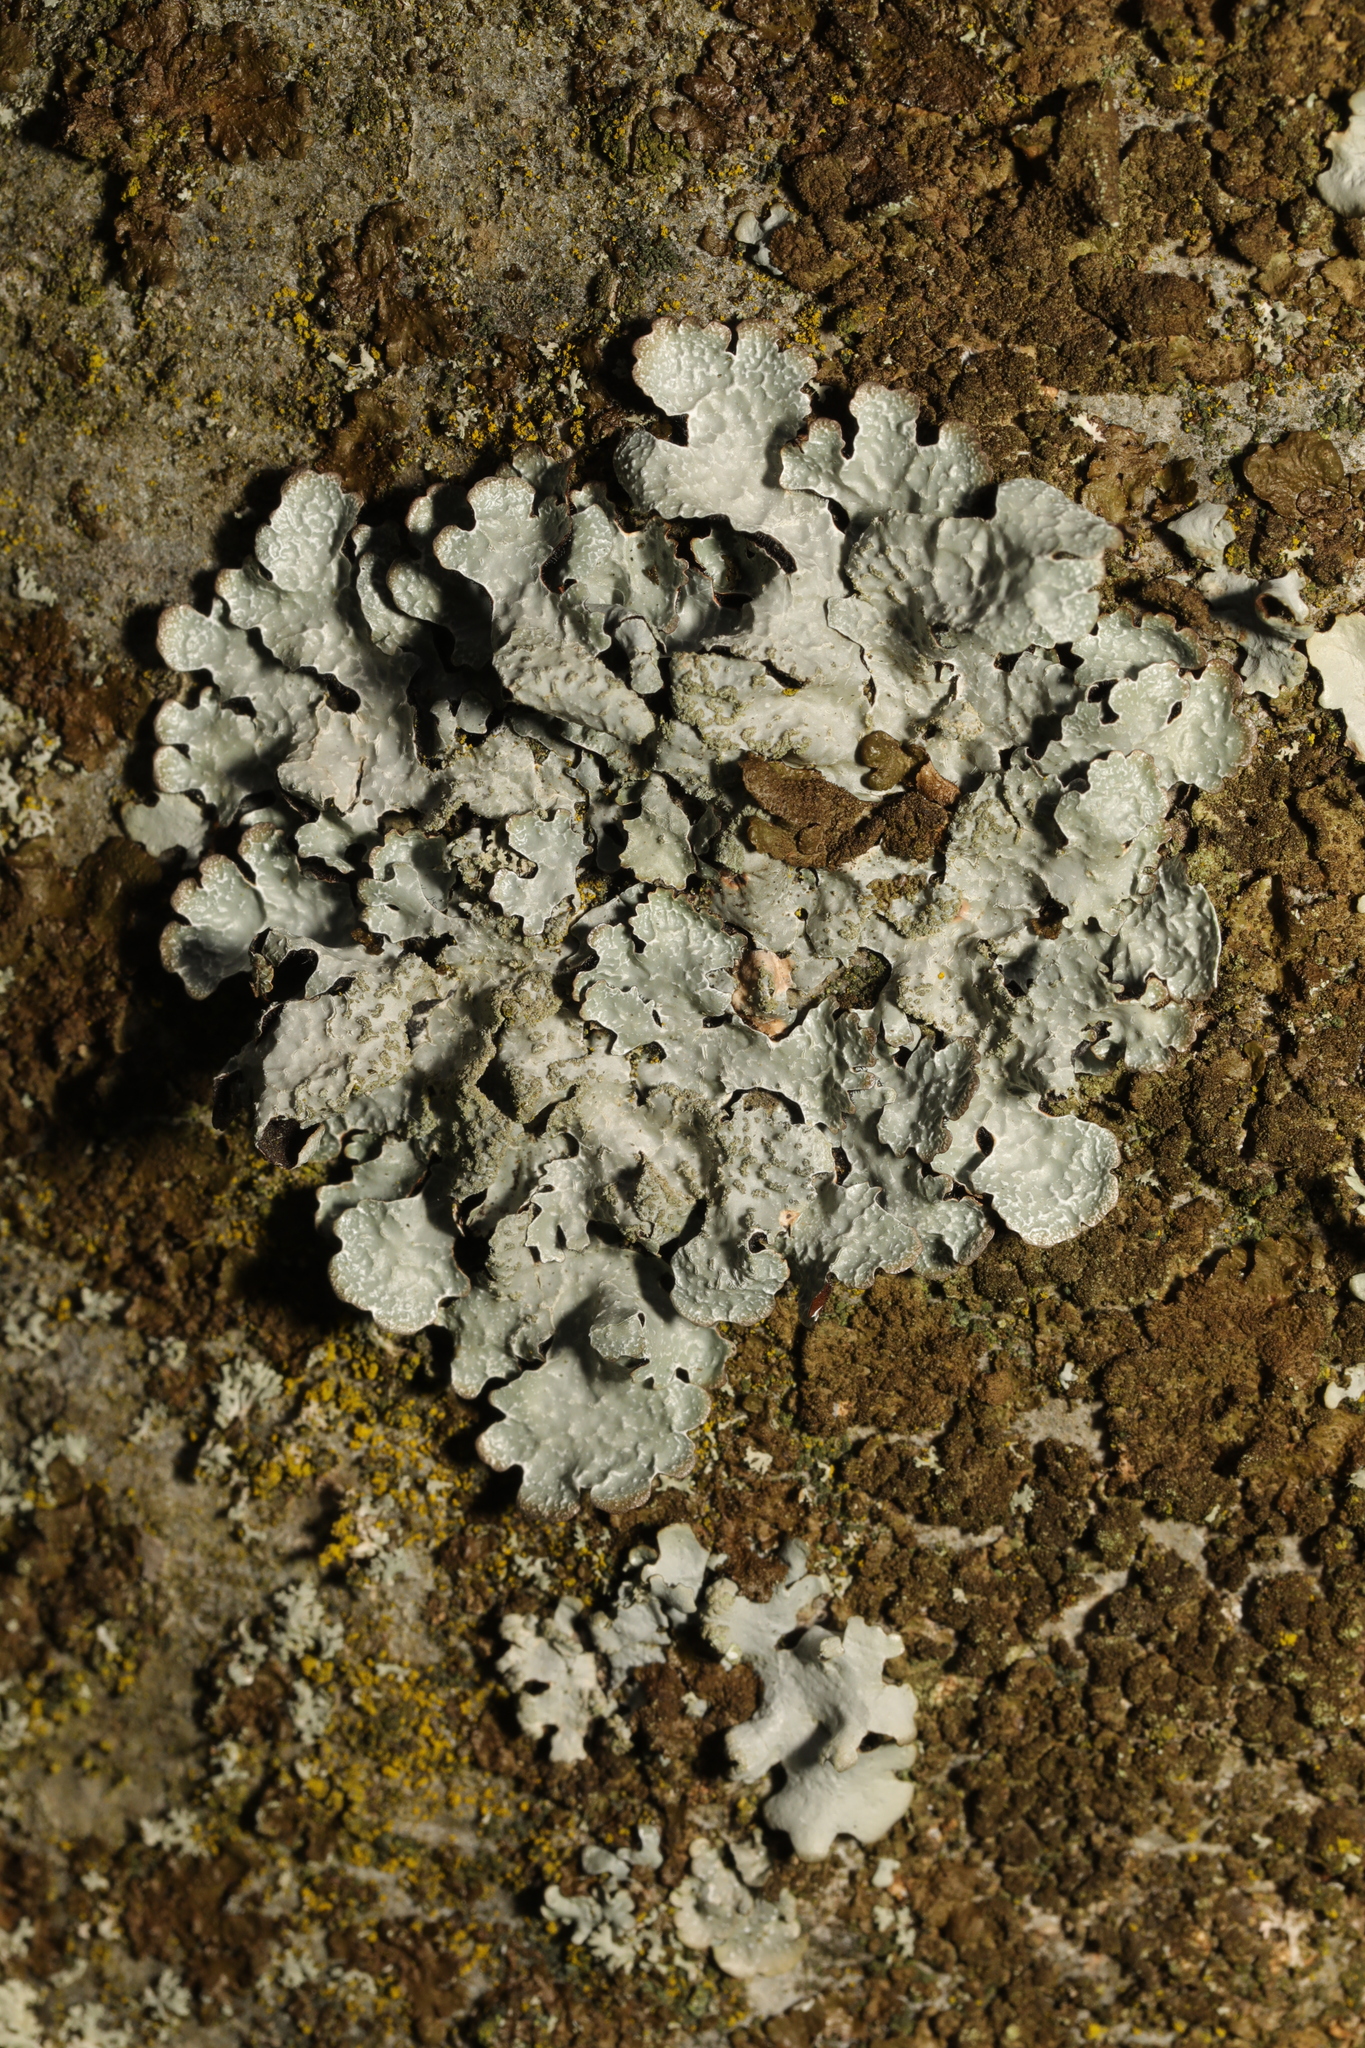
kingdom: Fungi
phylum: Ascomycota
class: Lecanoromycetes
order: Lecanorales
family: Parmeliaceae
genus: Parmelia
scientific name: Parmelia sulcata
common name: Netted shield lichen
